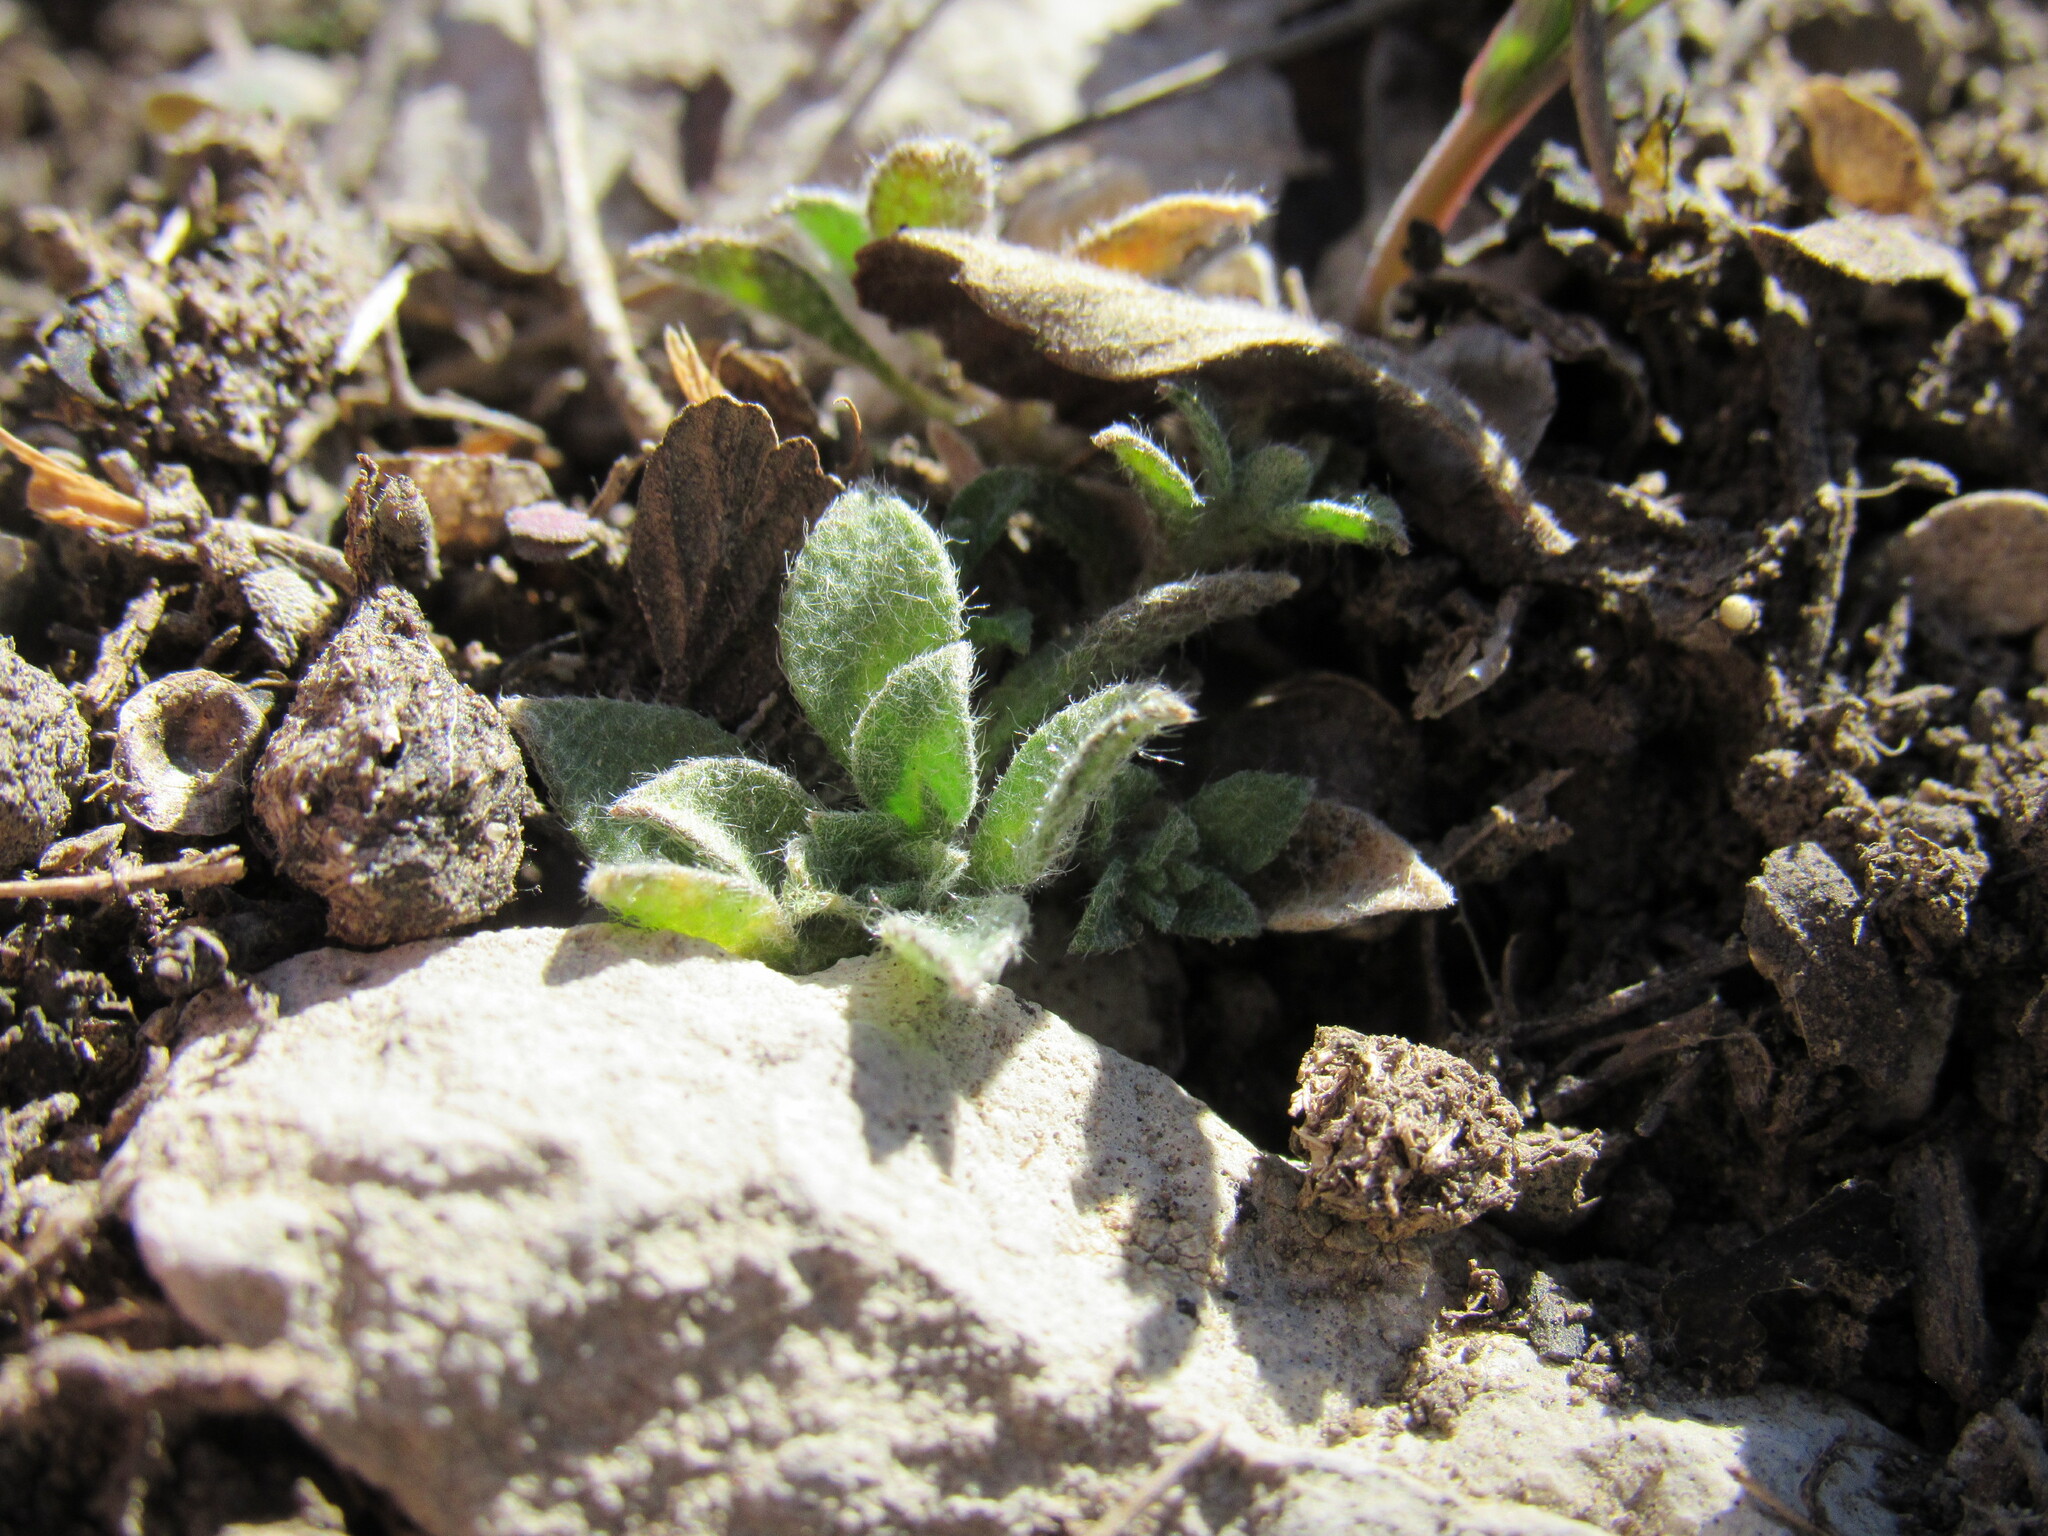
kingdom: Plantae
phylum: Tracheophyta
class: Magnoliopsida
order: Brassicales
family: Brassicaceae
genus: Alyssum
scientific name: Alyssum simplex
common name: Alyssum
